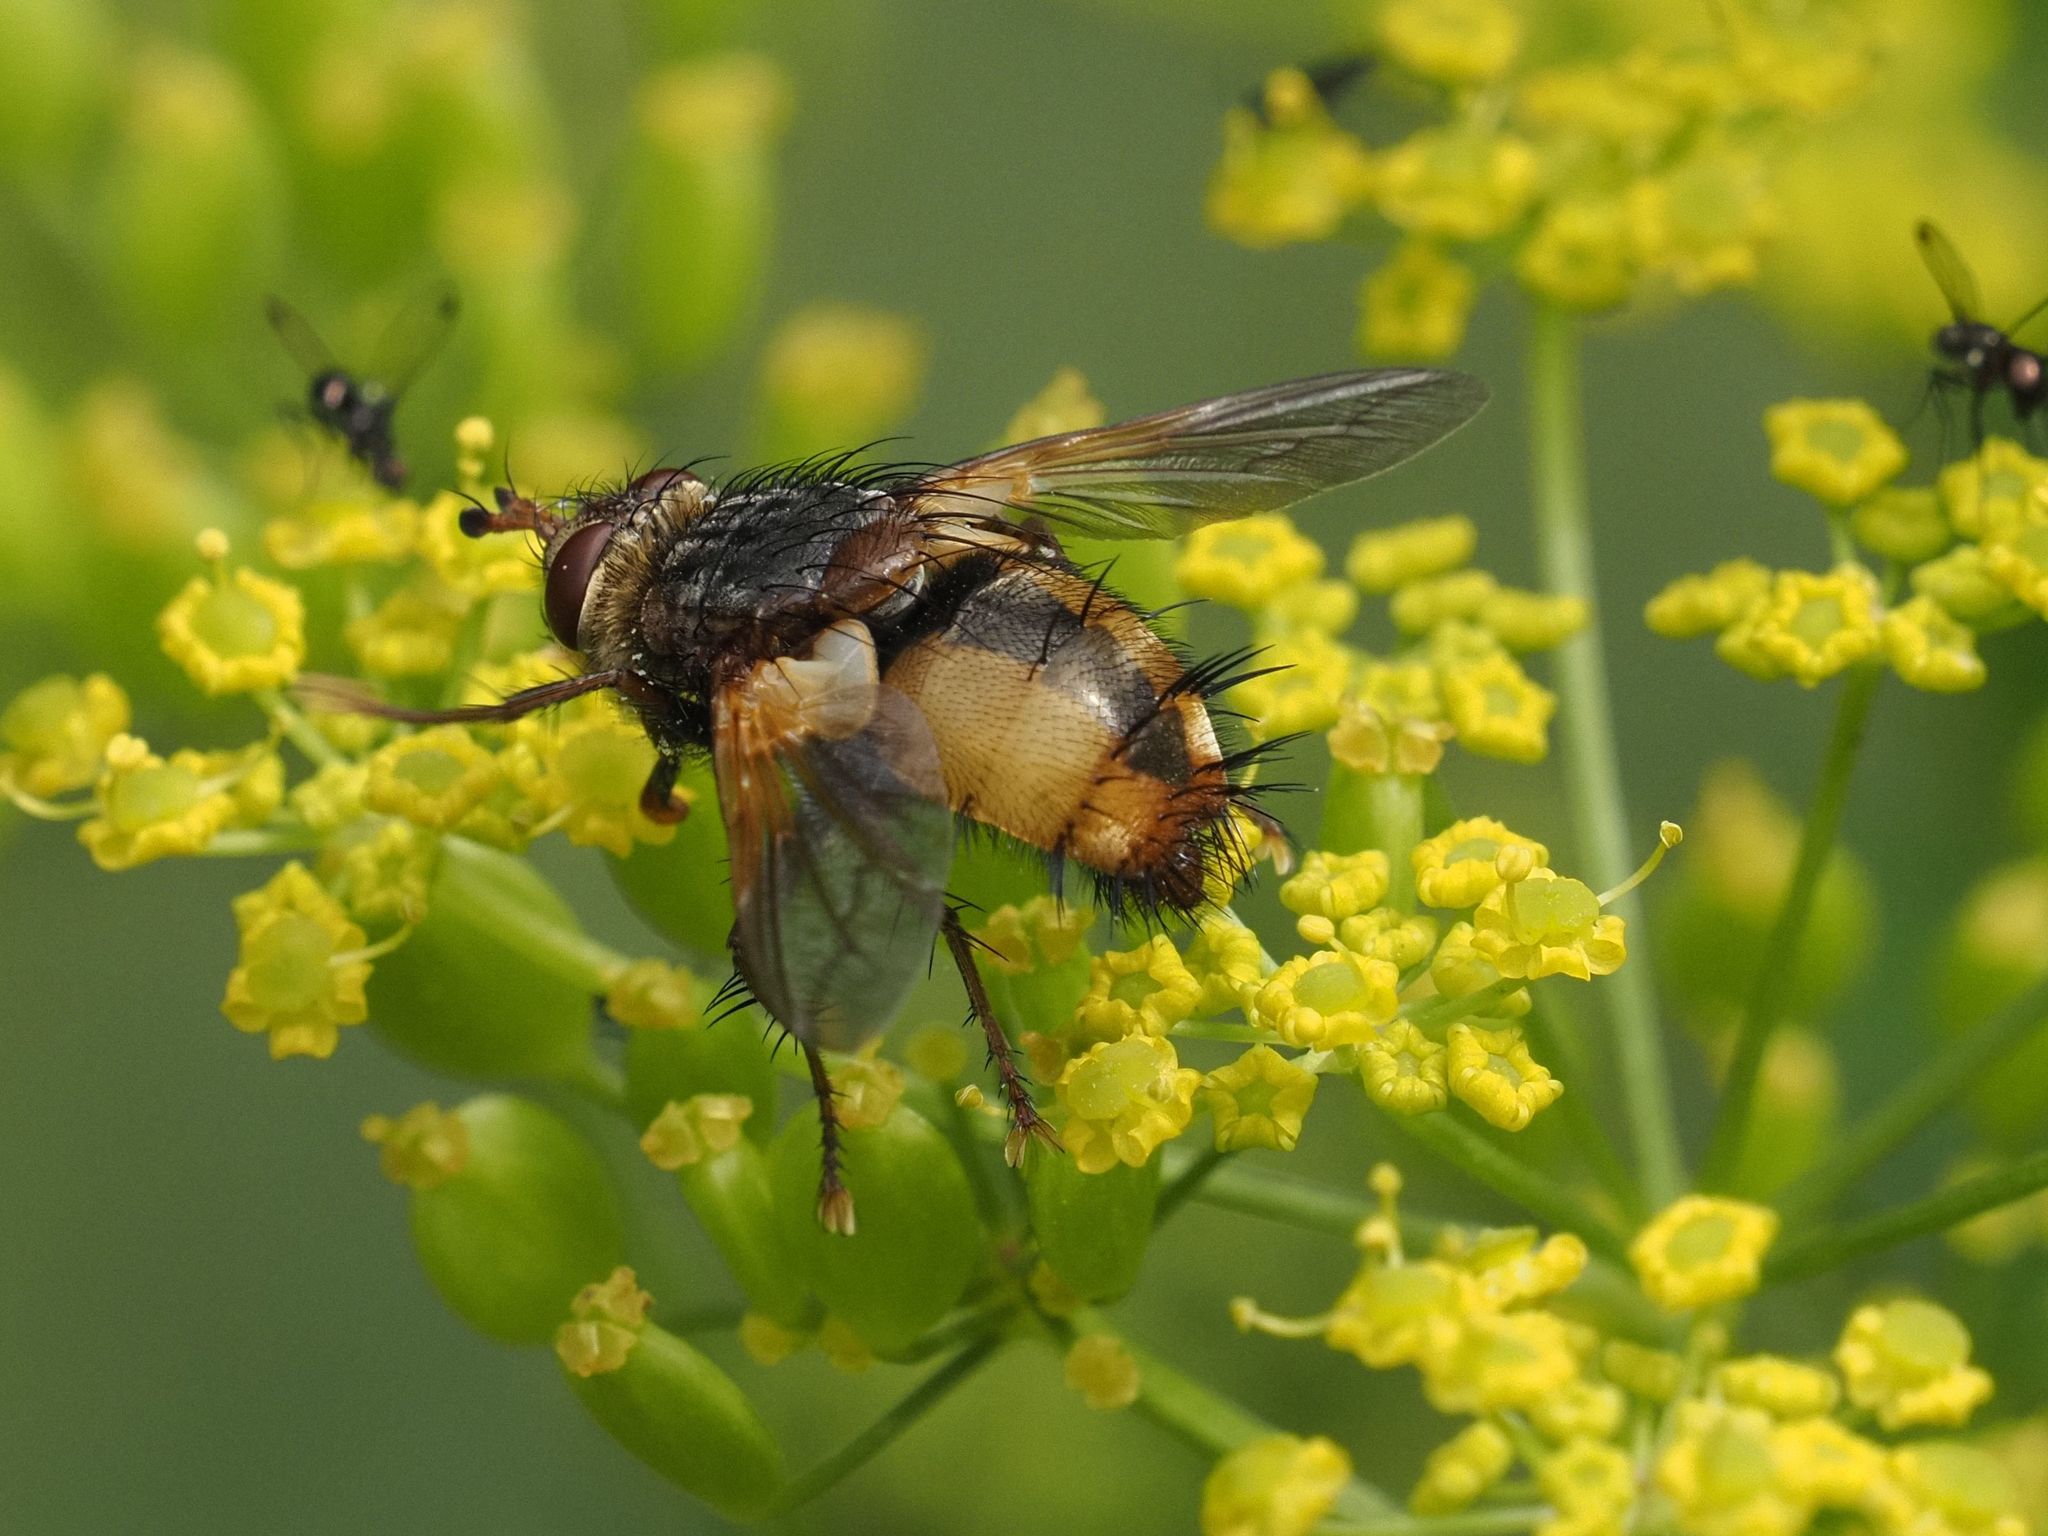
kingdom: Animalia
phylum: Arthropoda
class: Insecta
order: Diptera
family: Tachinidae
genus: Tachina
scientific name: Tachina fera
